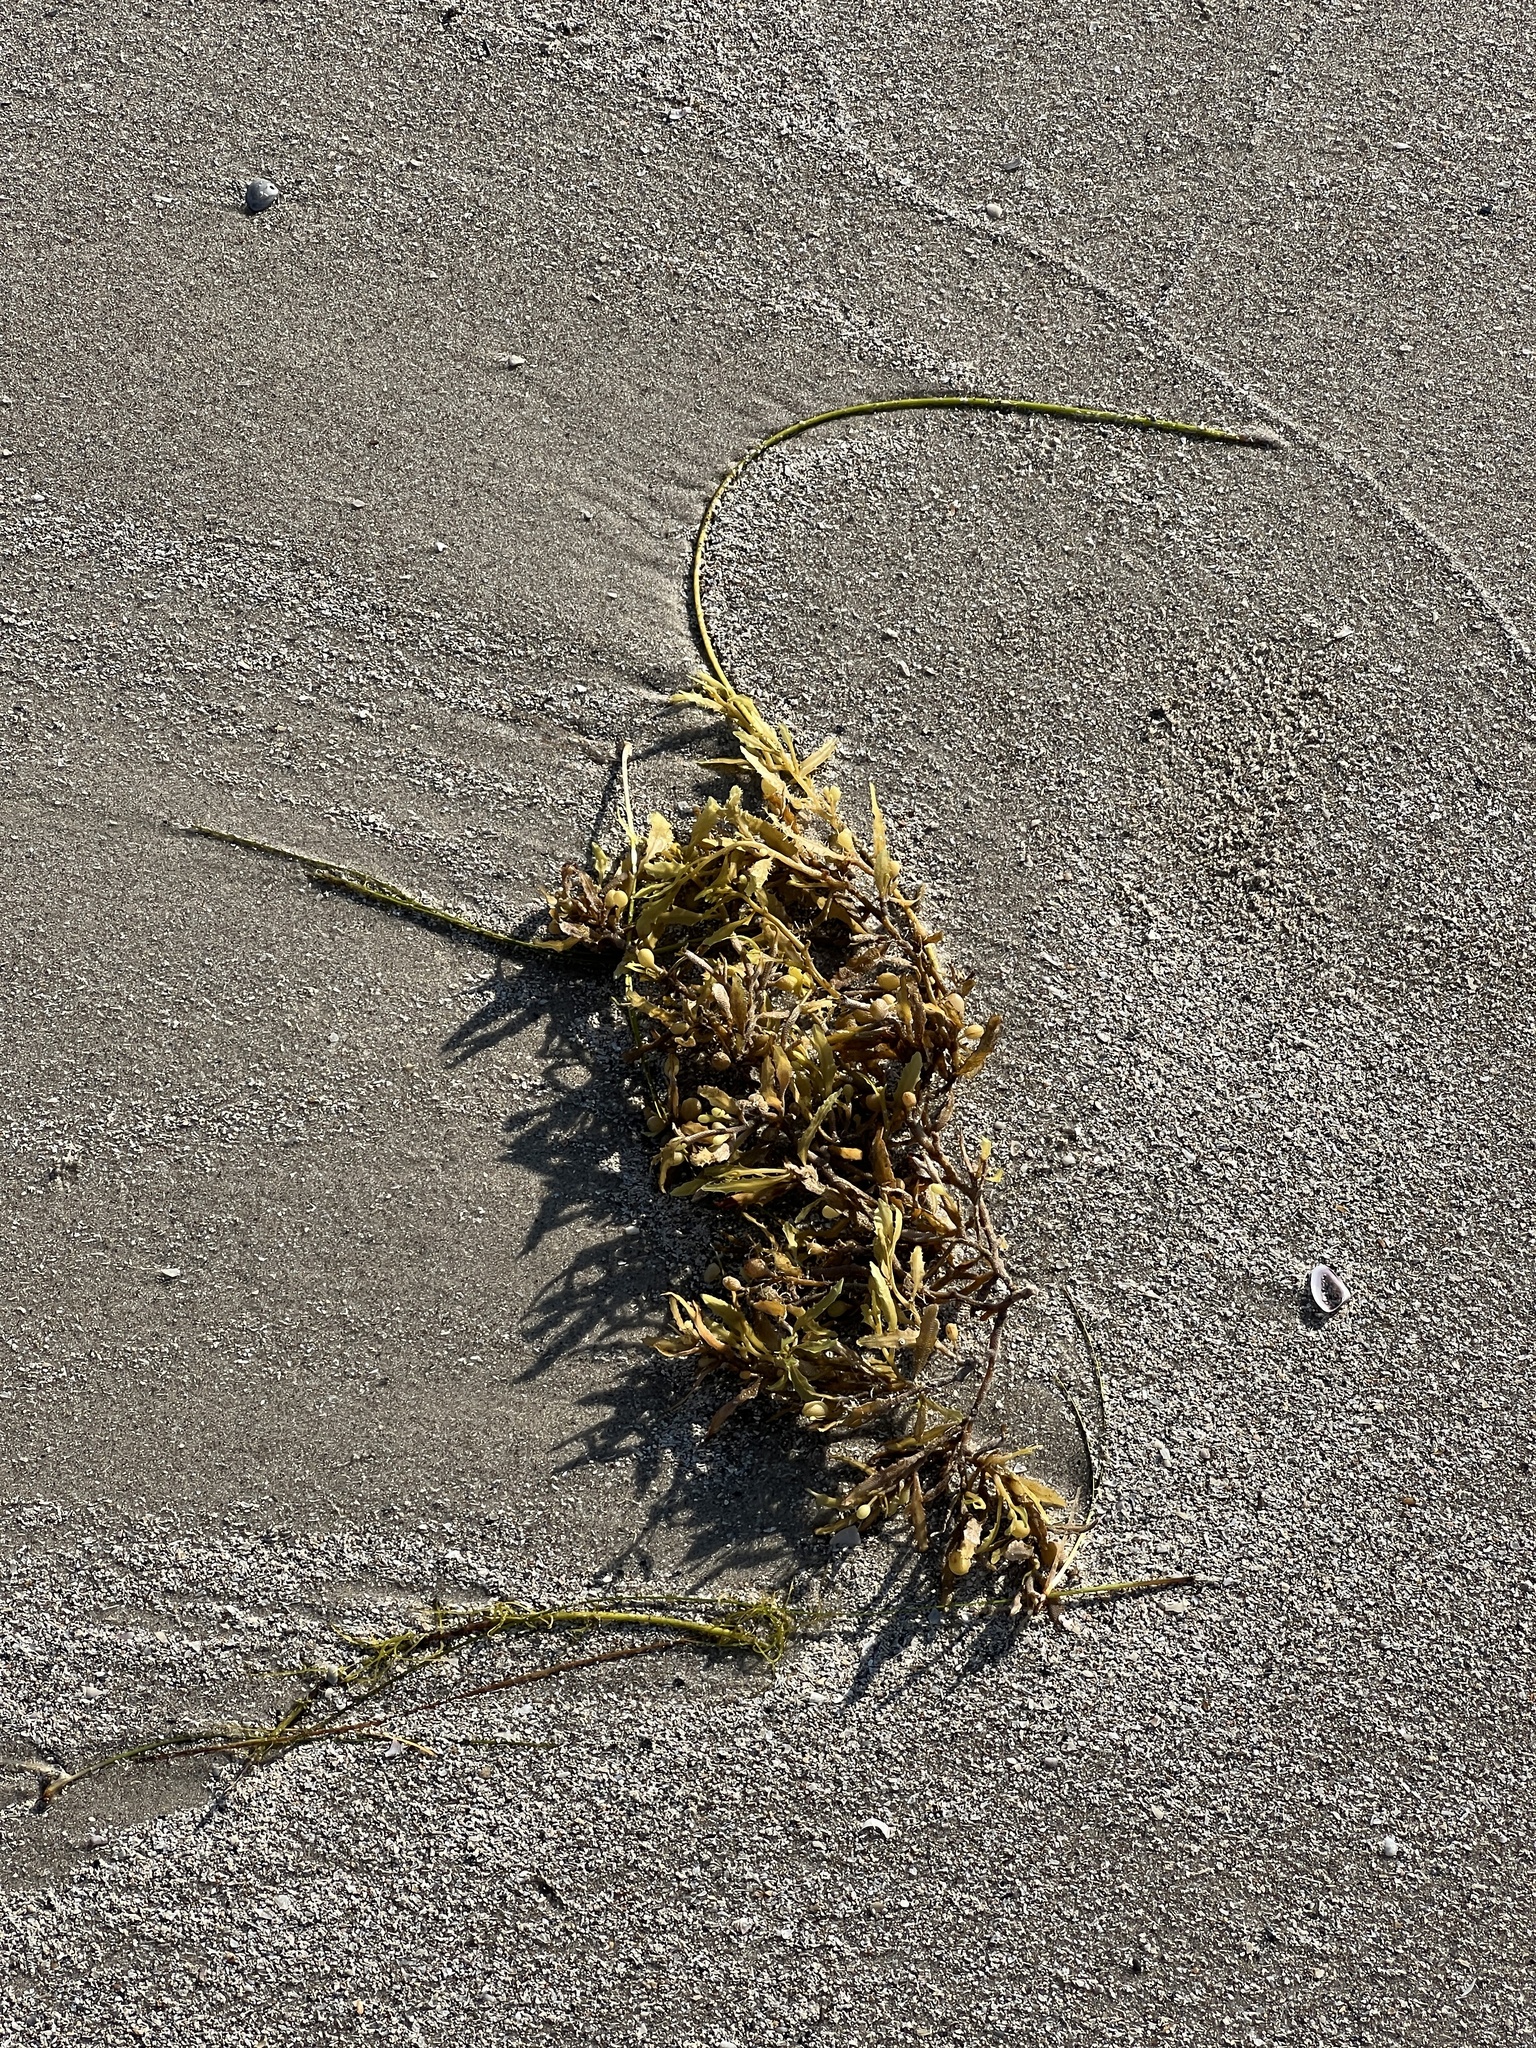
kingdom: Chromista
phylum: Ochrophyta
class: Phaeophyceae
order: Fucales
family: Sargassaceae
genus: Sargassum
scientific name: Sargassum fluitans
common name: Sargassum seaweed
